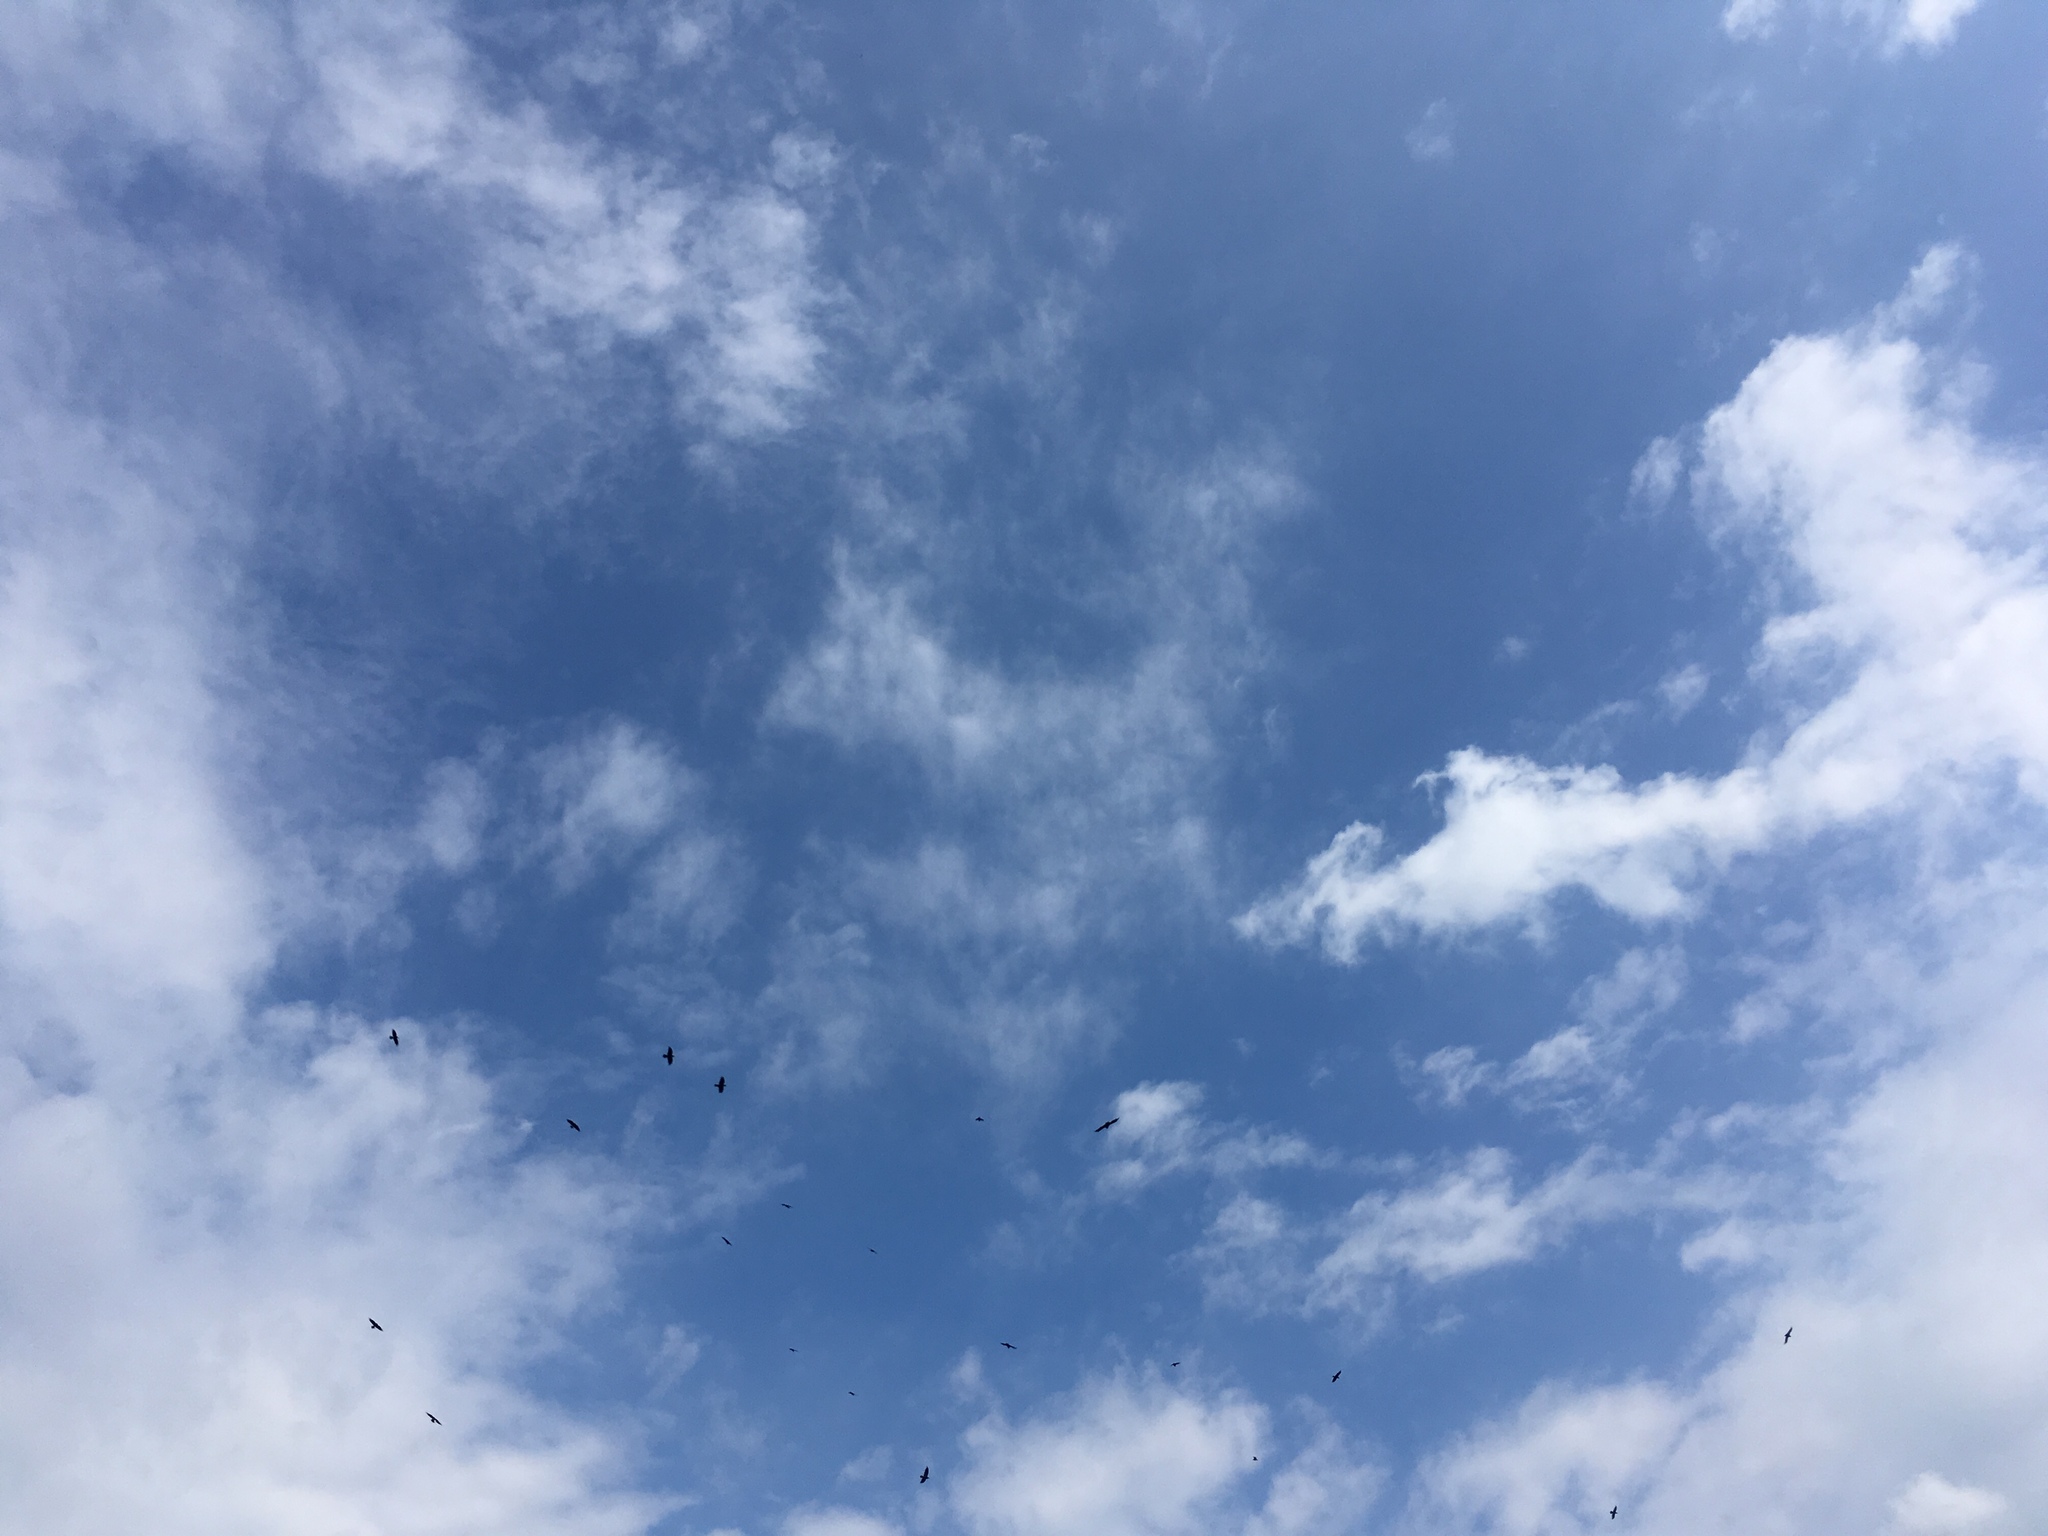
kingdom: Animalia
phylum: Chordata
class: Aves
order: Passeriformes
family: Corvidae
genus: Corvus
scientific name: Corvus corax
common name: Common raven
